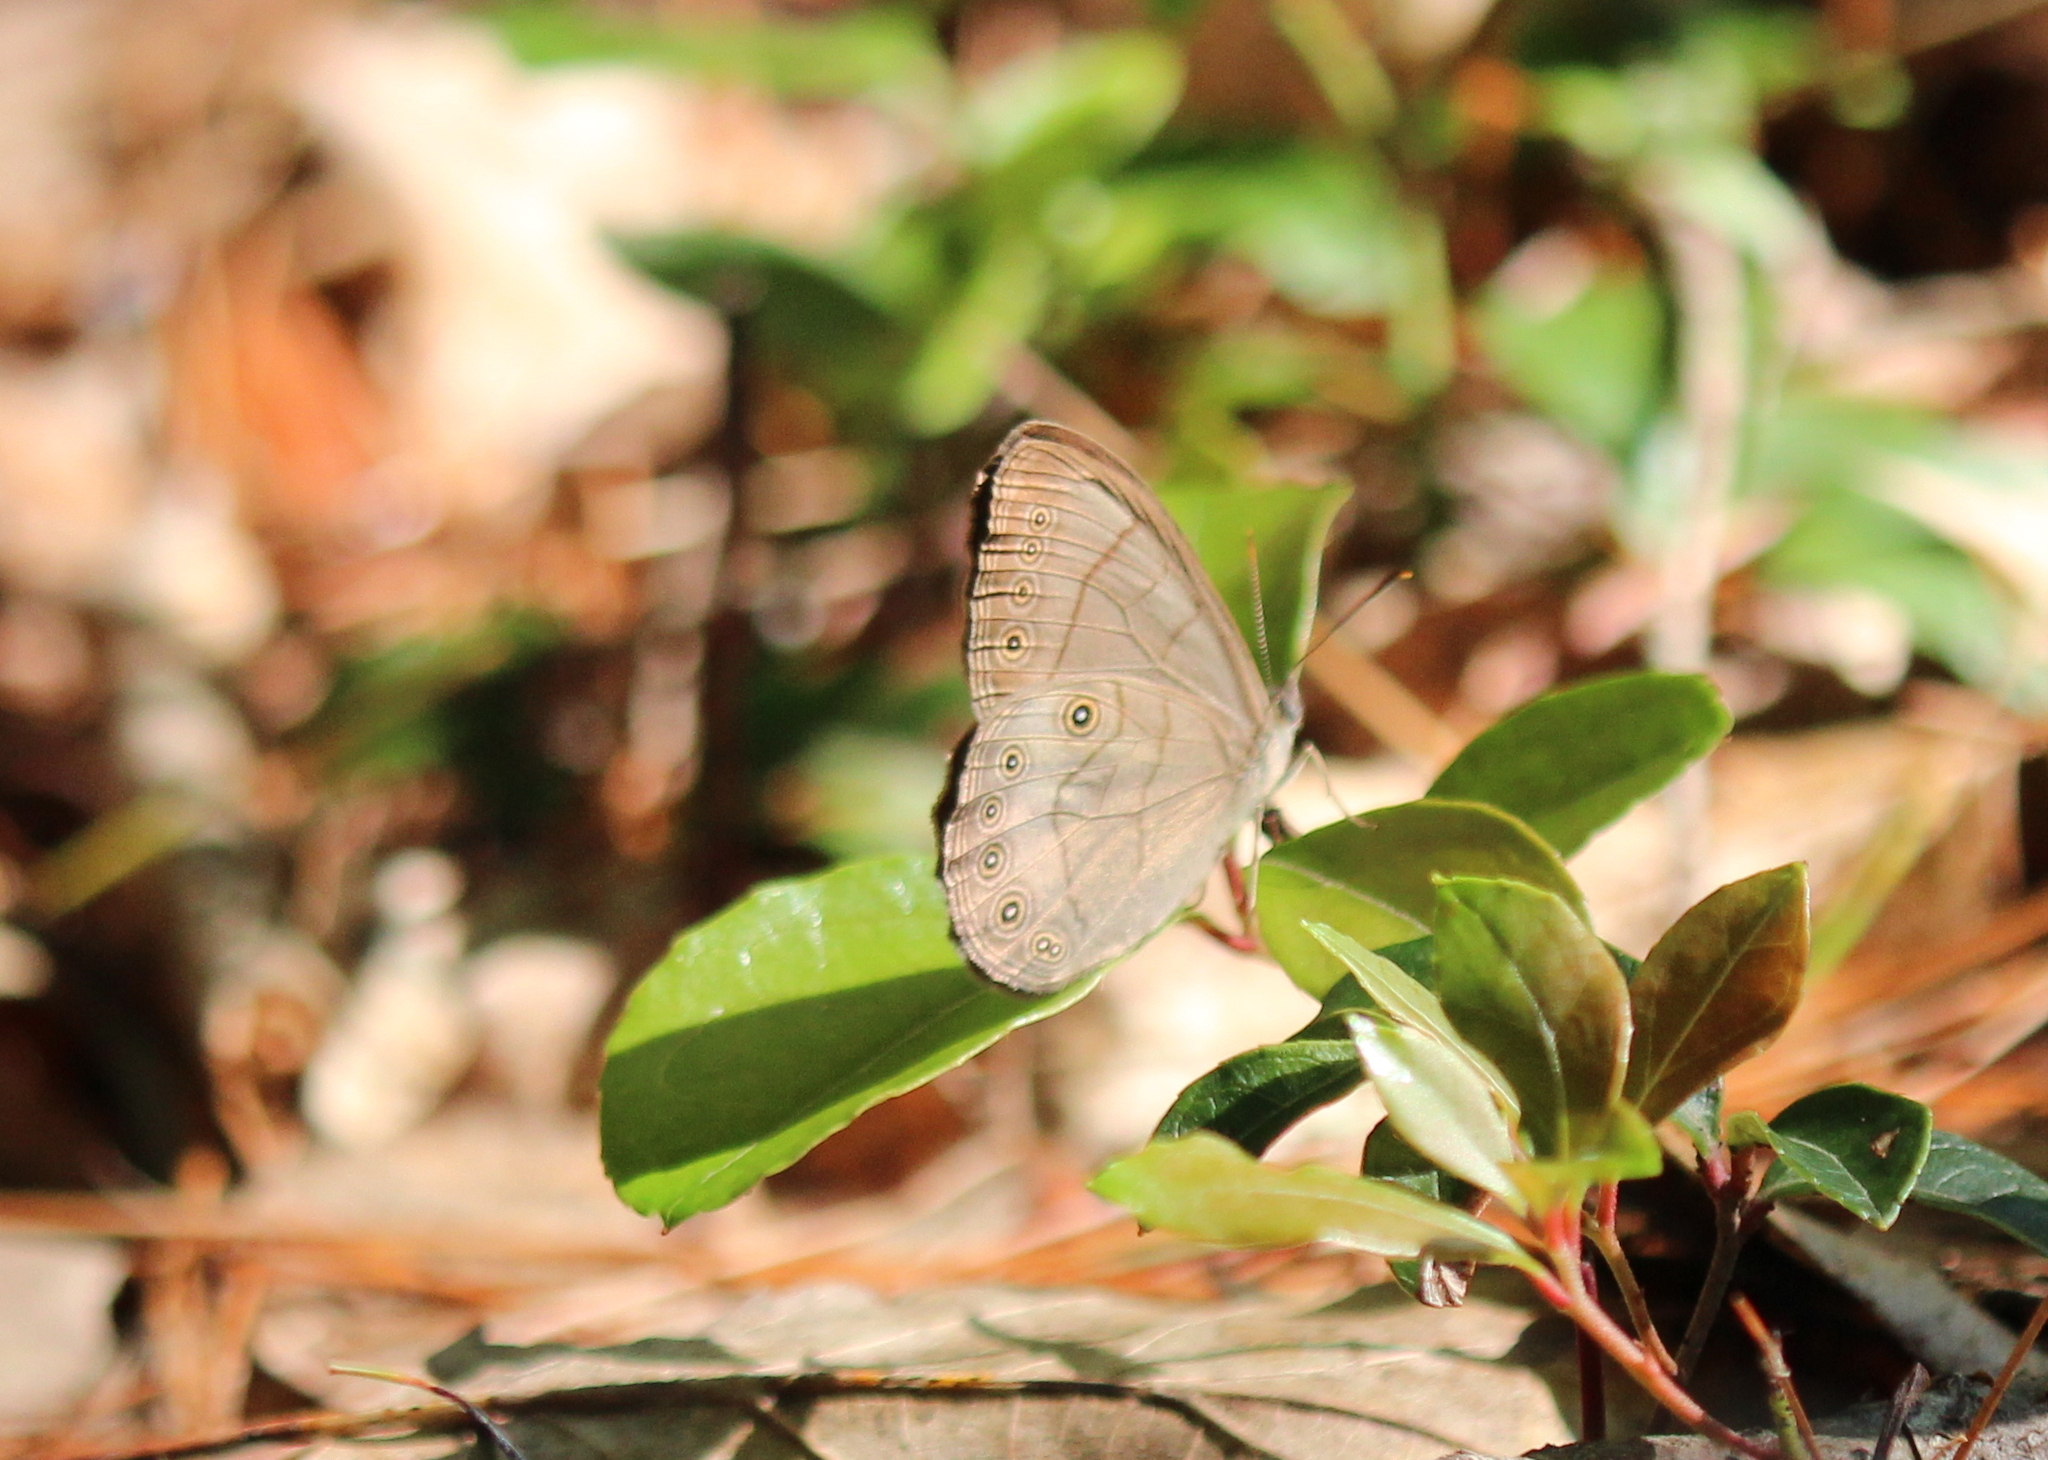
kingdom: Animalia
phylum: Arthropoda
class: Insecta
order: Lepidoptera
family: Nymphalidae
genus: Lethe
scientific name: Lethe eurydice
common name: Eyed brown
